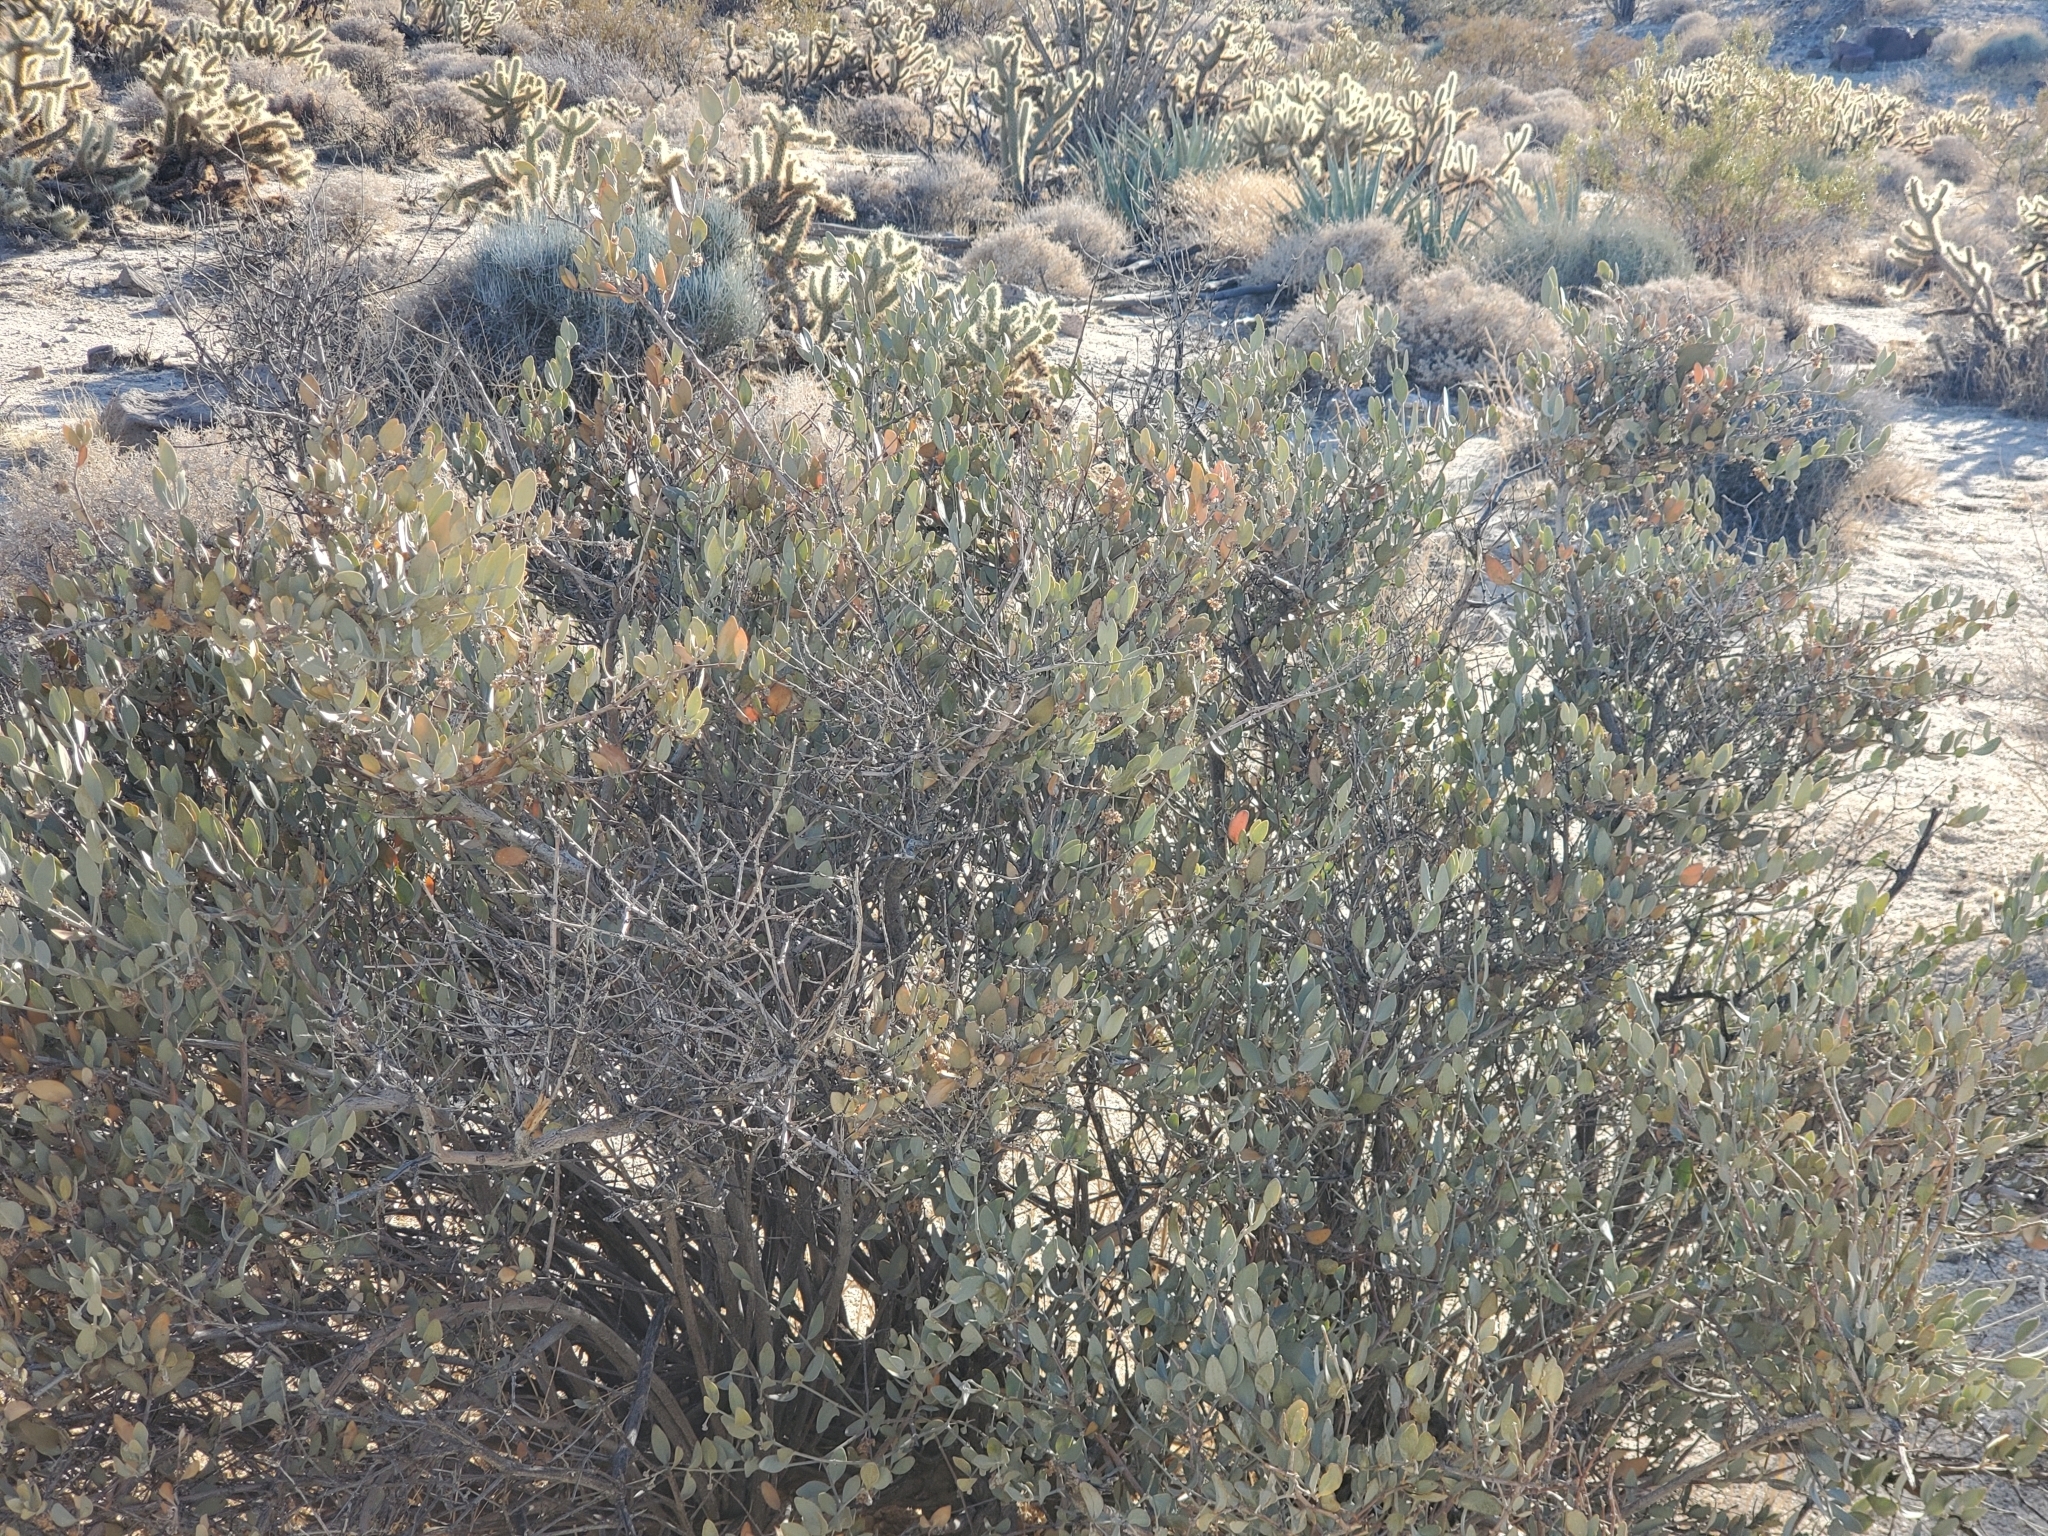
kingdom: Plantae
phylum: Tracheophyta
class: Magnoliopsida
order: Caryophyllales
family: Simmondsiaceae
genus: Simmondsia
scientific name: Simmondsia chinensis
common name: Jojoba
